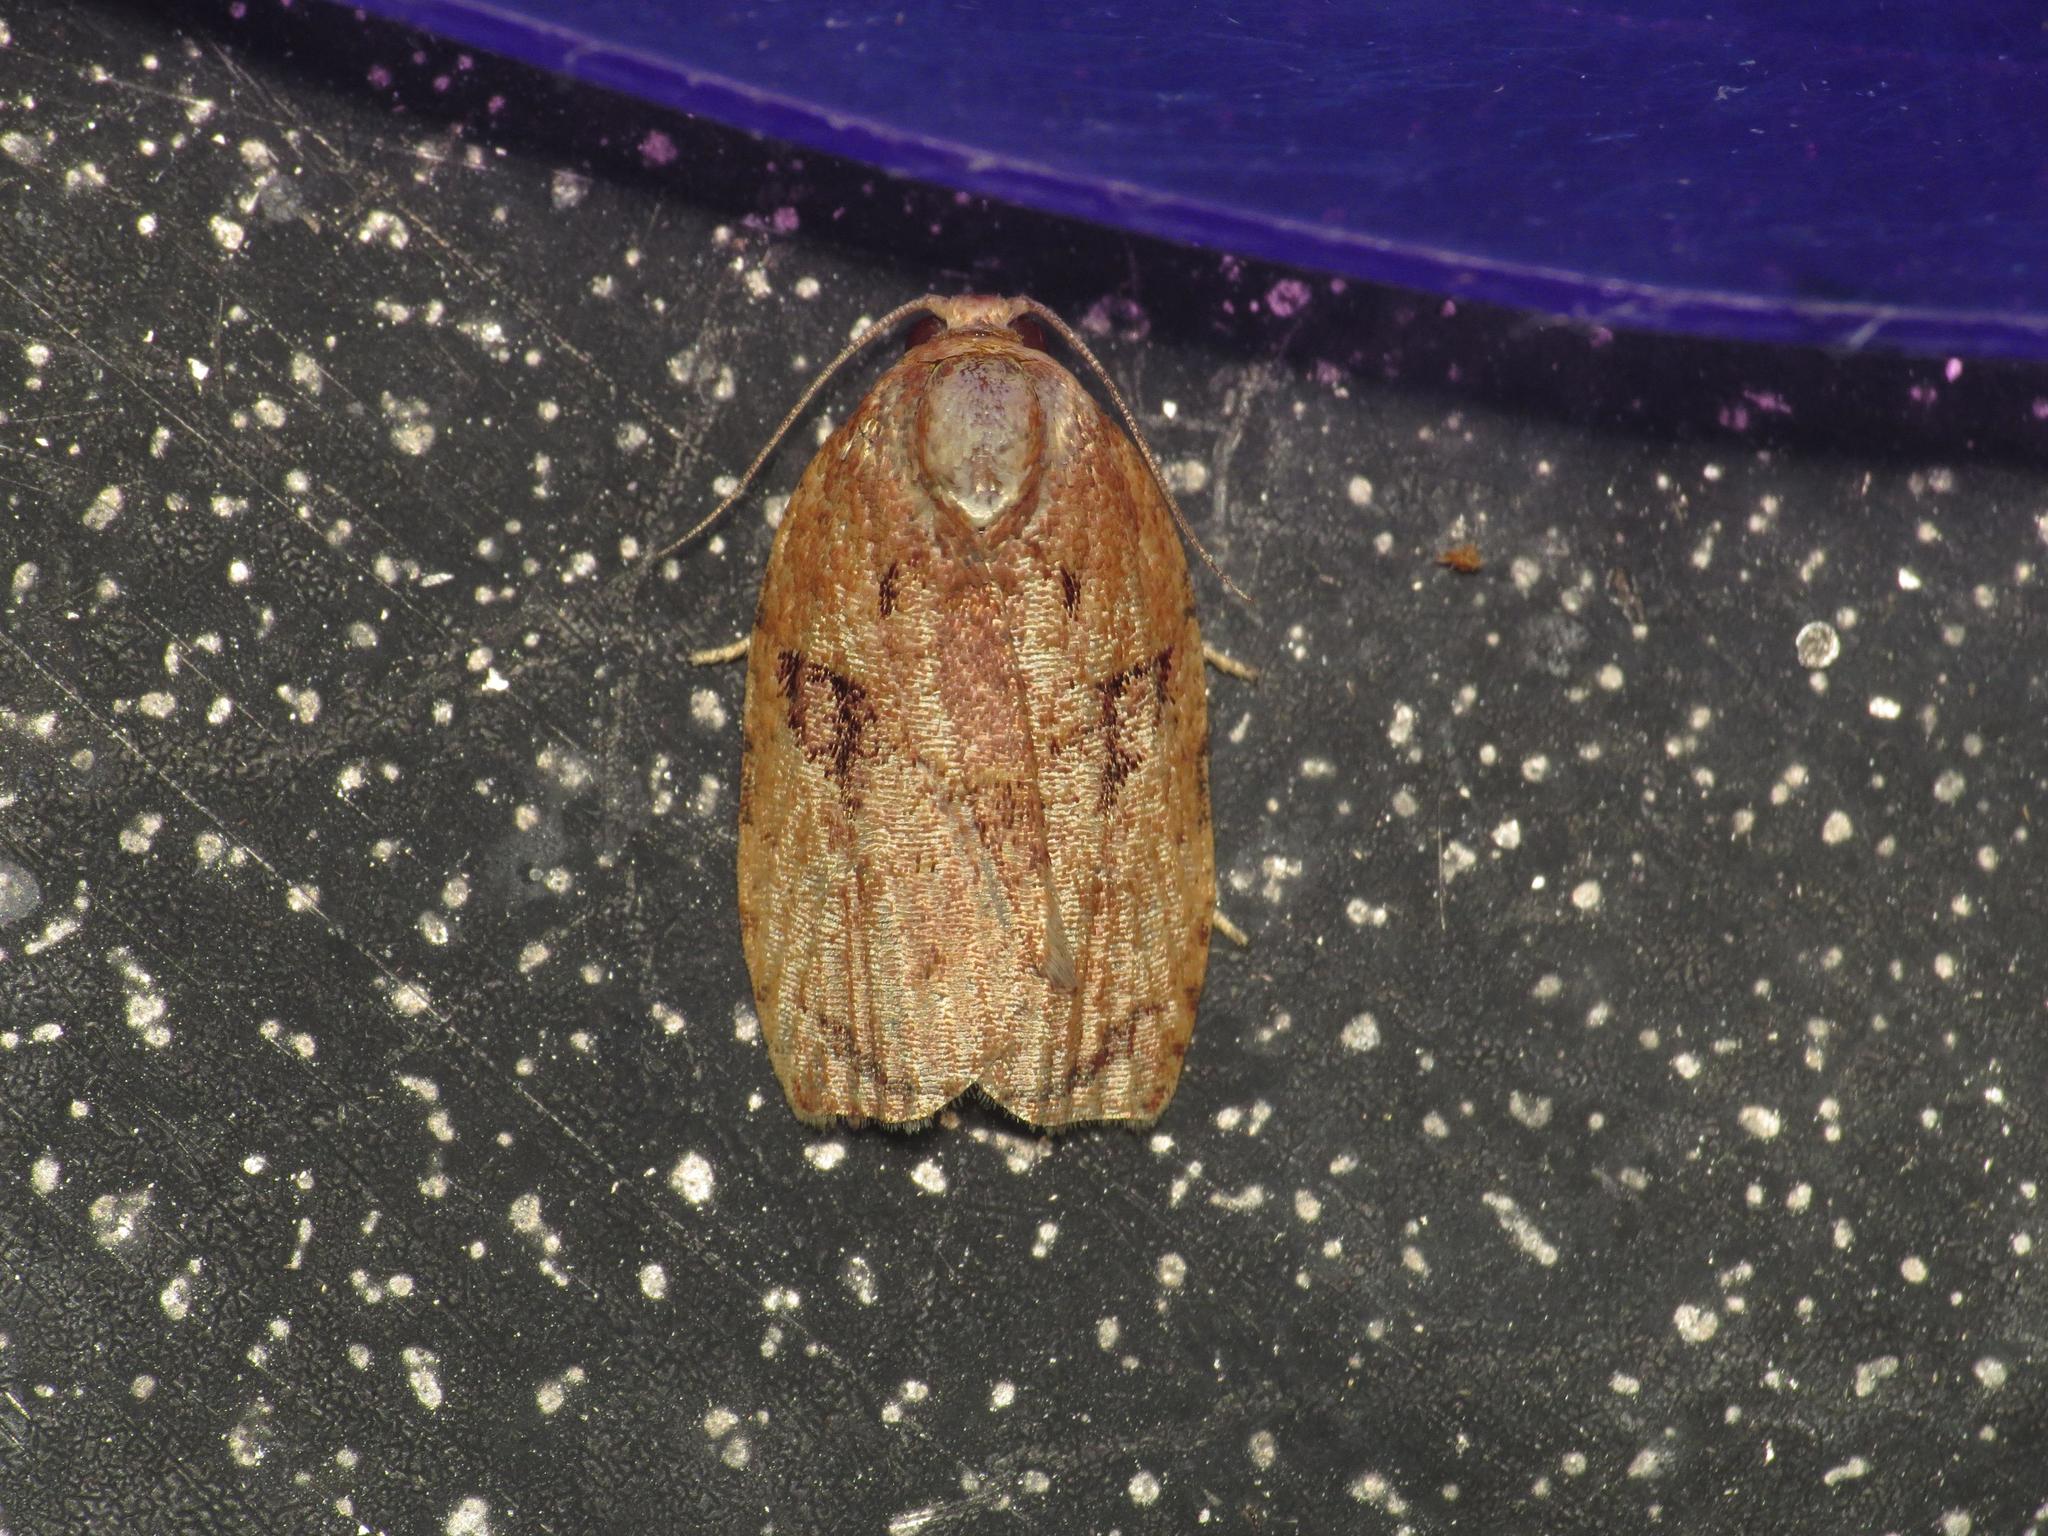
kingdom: Animalia
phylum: Arthropoda
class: Insecta
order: Lepidoptera
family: Tortricidae
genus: Homona
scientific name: Homona mermerodes
